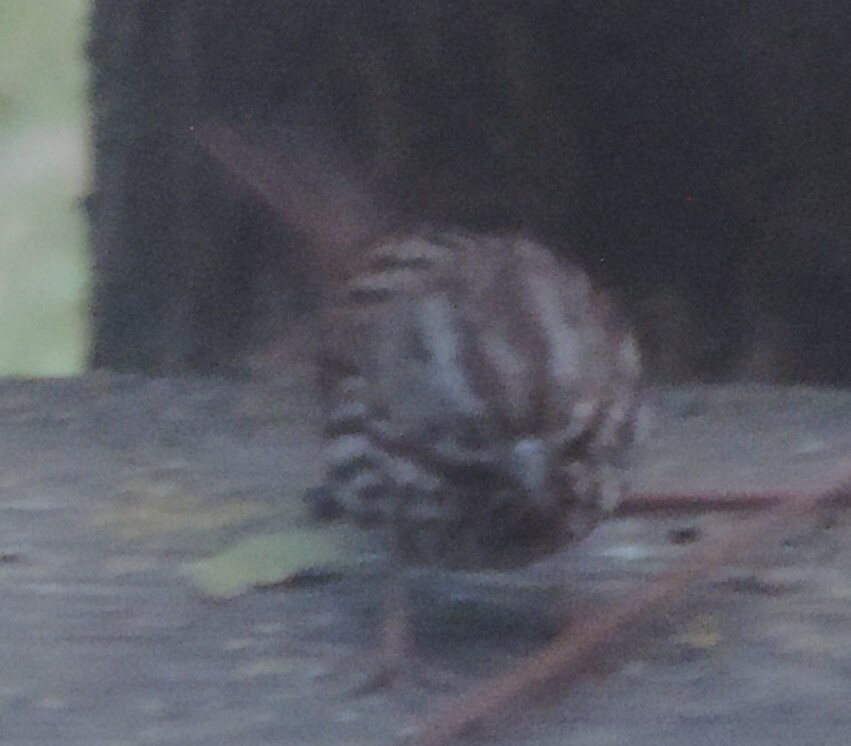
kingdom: Animalia
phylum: Chordata
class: Aves
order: Passeriformes
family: Passerellidae
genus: Melospiza
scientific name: Melospiza melodia
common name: Song sparrow
